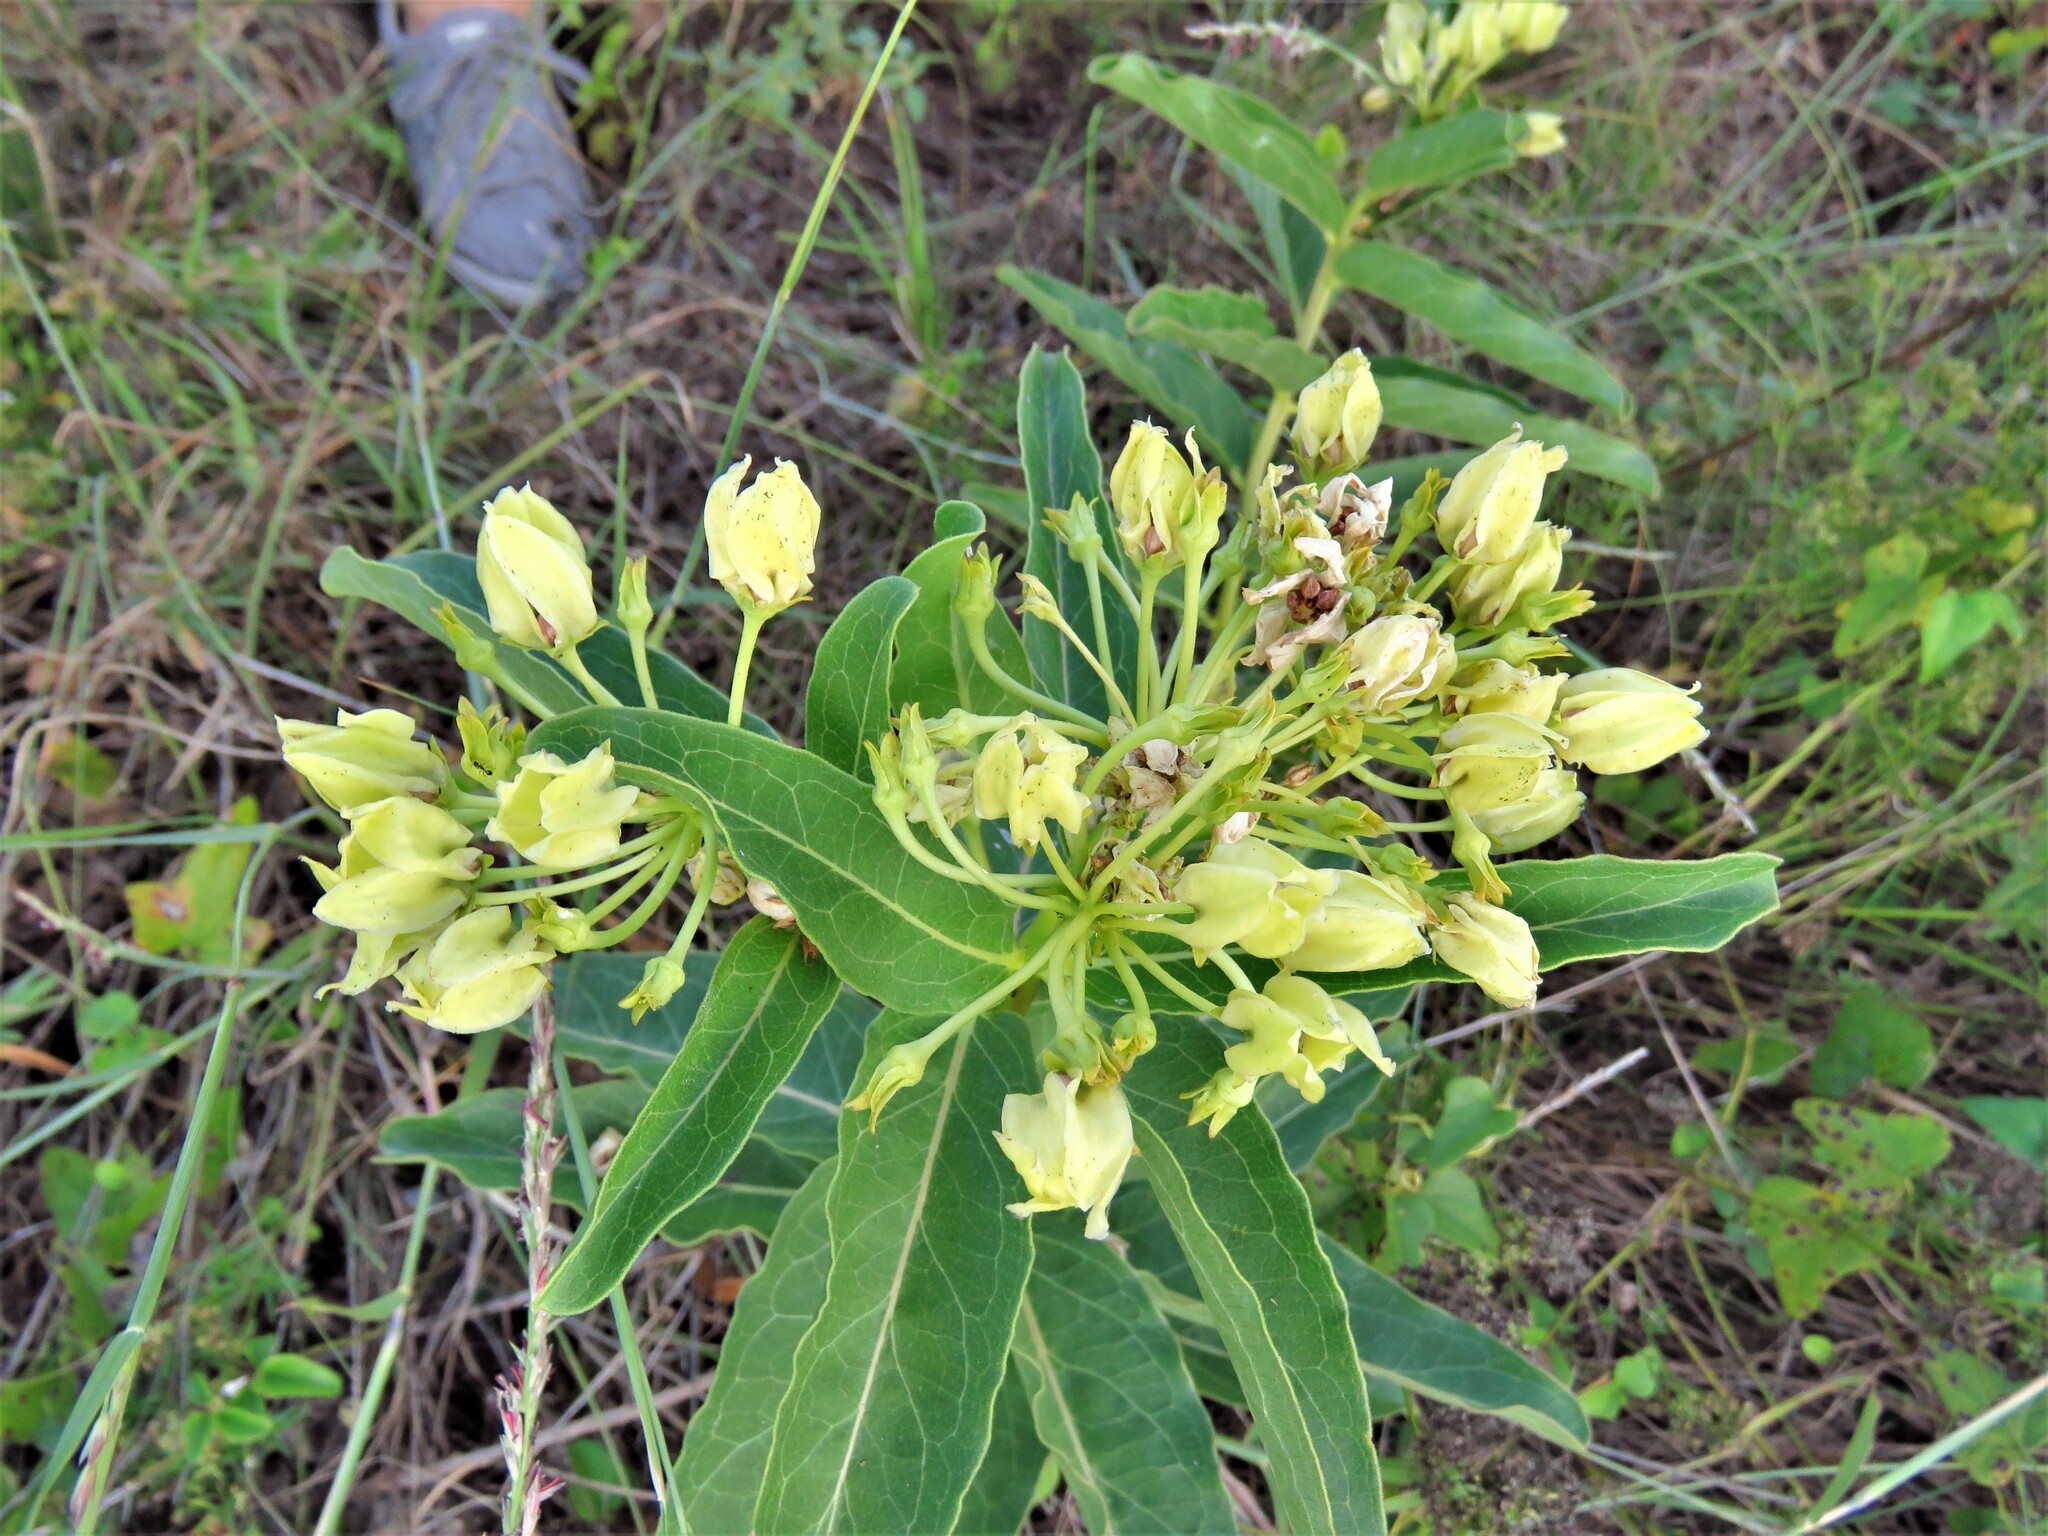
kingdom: Plantae
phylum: Tracheophyta
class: Magnoliopsida
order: Gentianales
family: Apocynaceae
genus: Asclepias
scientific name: Asclepias viridis
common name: Antelope-horns
